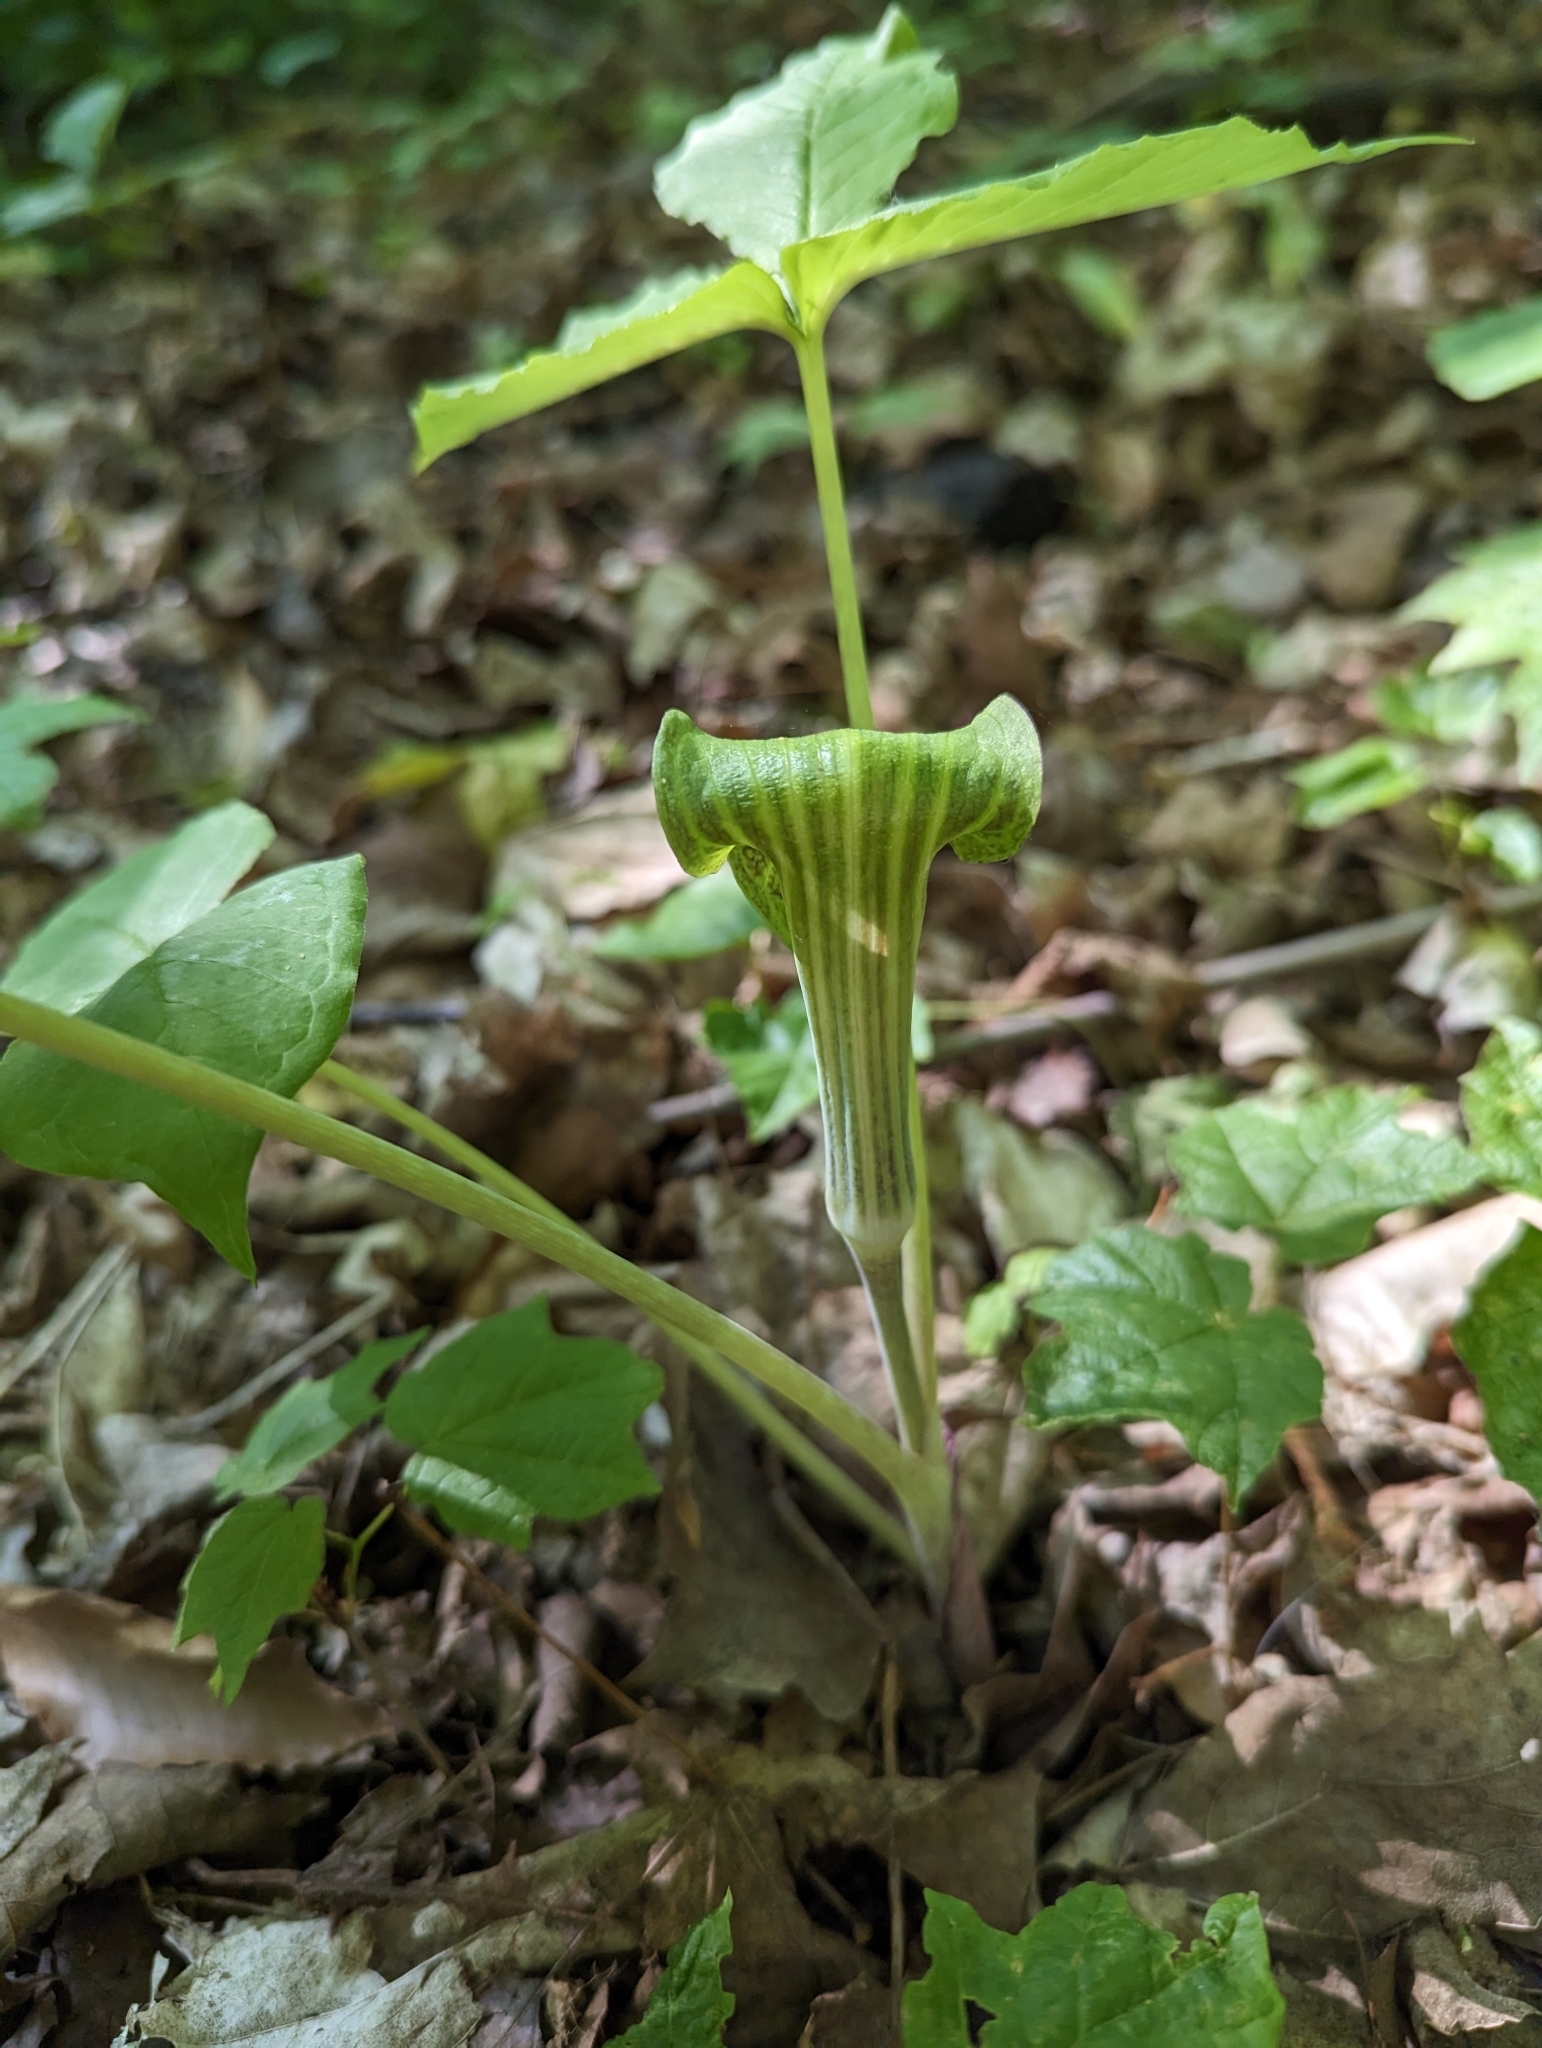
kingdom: Plantae
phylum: Tracheophyta
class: Liliopsida
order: Alismatales
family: Araceae
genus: Arisaema
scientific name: Arisaema triphyllum
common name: Jack-in-the-pulpit
